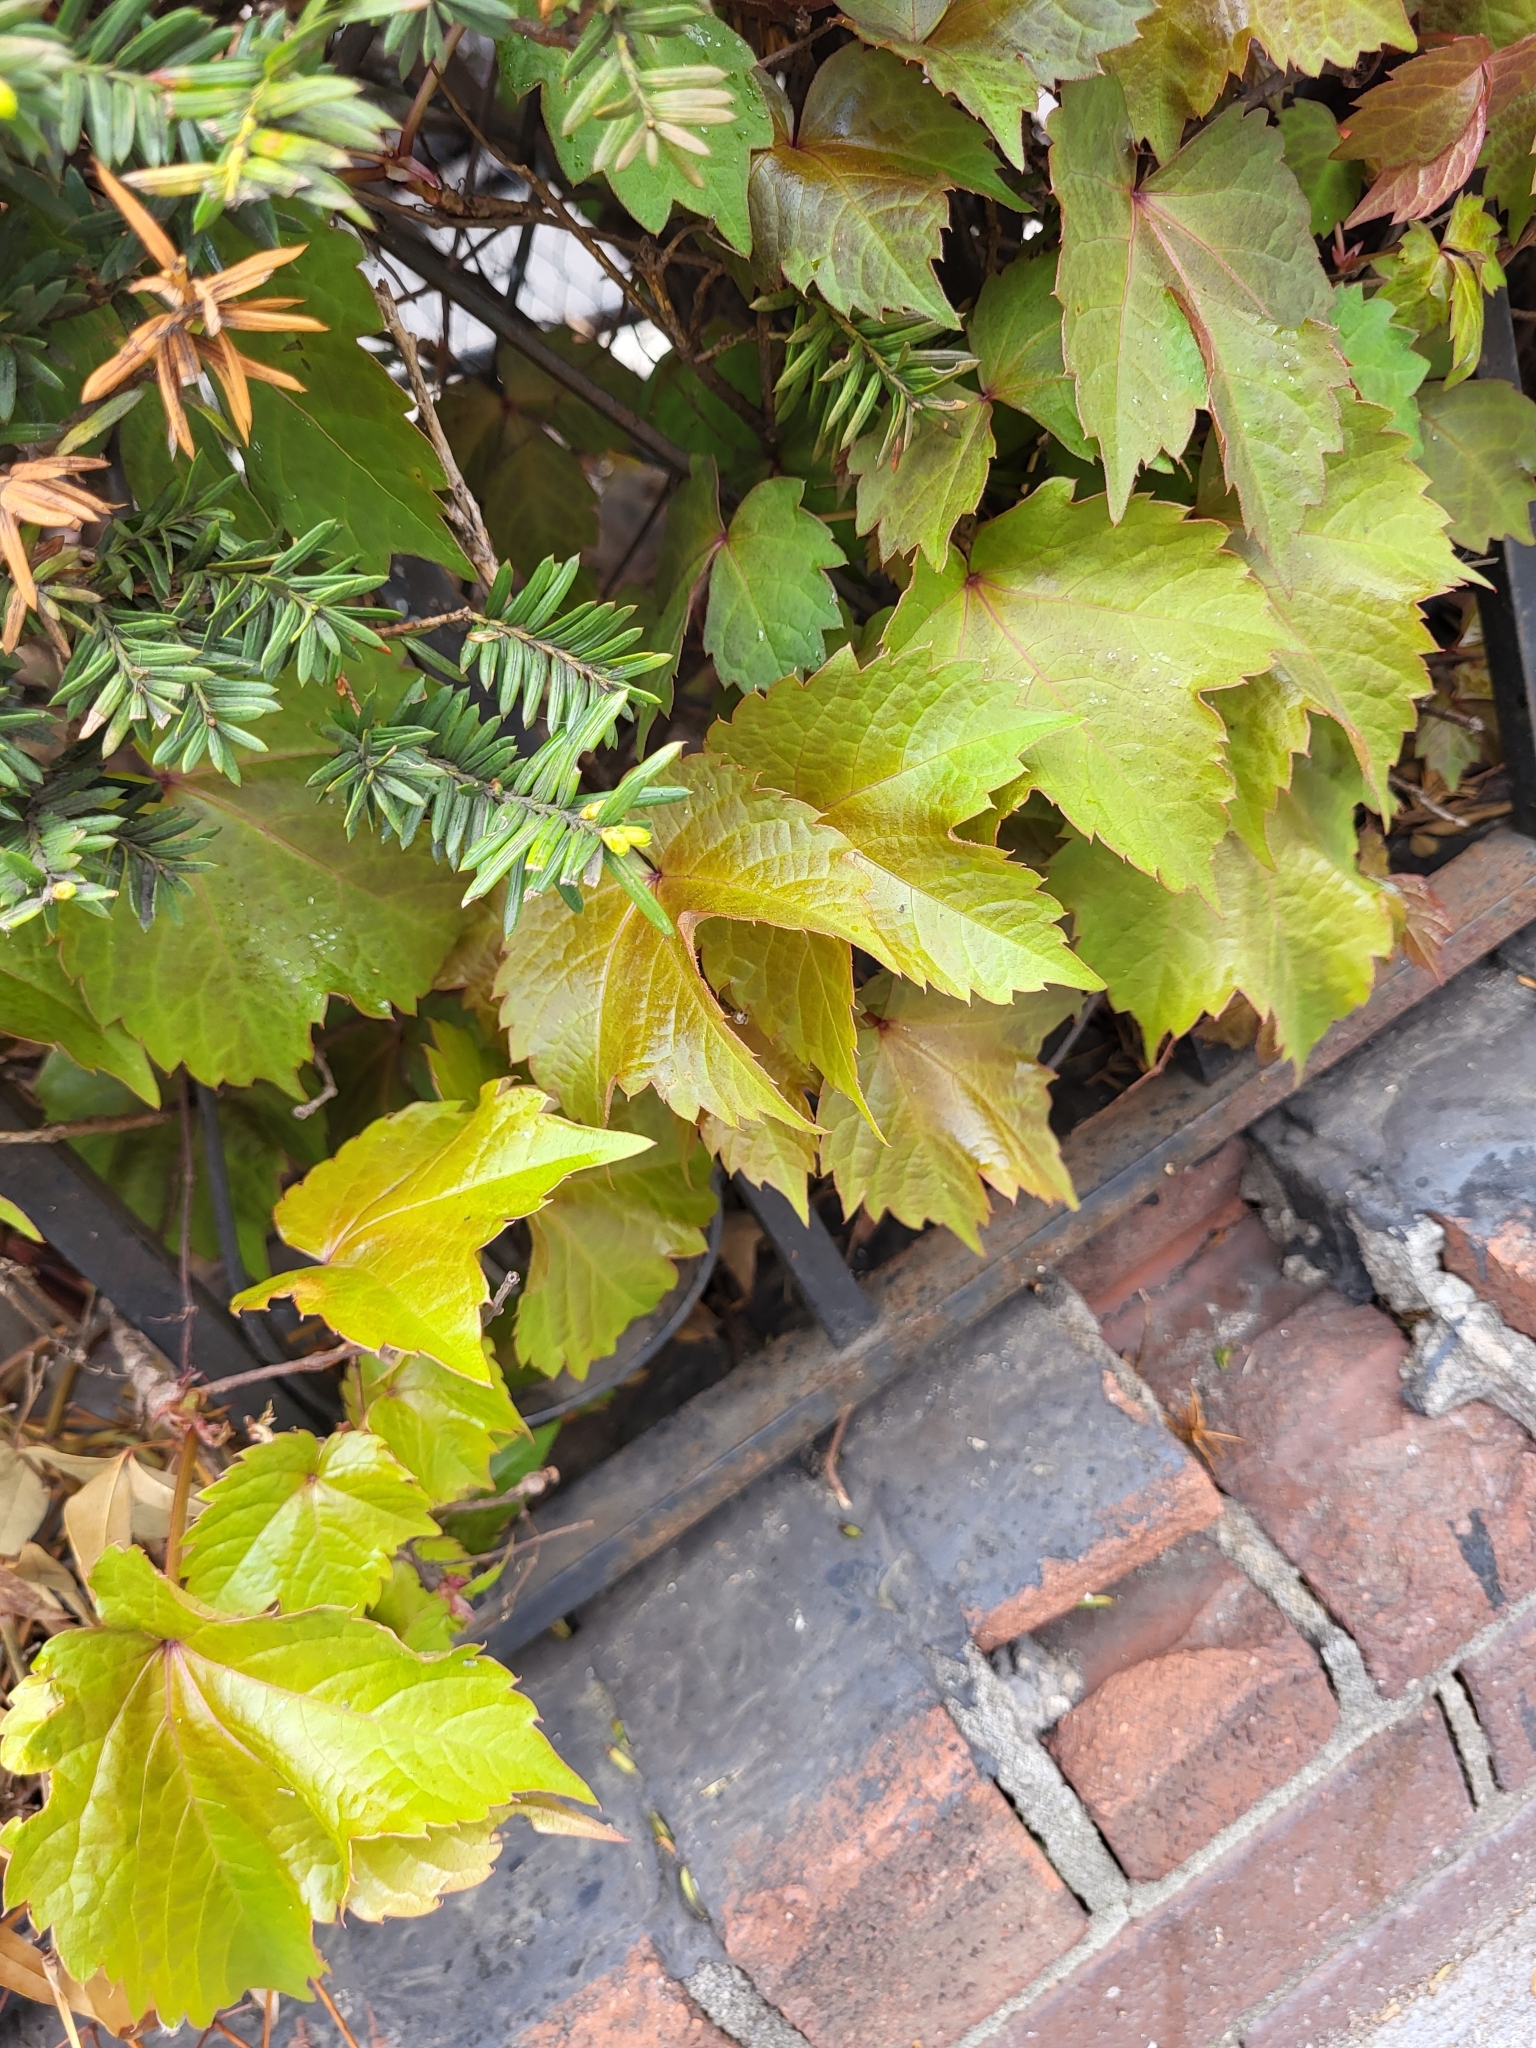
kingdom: Plantae
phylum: Tracheophyta
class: Magnoliopsida
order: Vitales
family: Vitaceae
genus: Parthenocissus
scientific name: Parthenocissus tricuspidata
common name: Boston ivy
